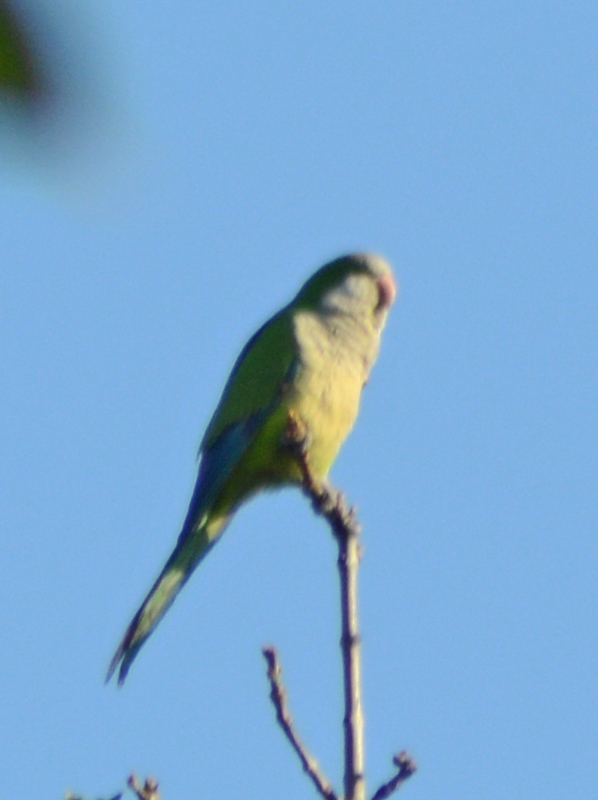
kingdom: Animalia
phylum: Chordata
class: Aves
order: Psittaciformes
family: Psittacidae
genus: Myiopsitta
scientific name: Myiopsitta monachus
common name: Monk parakeet
